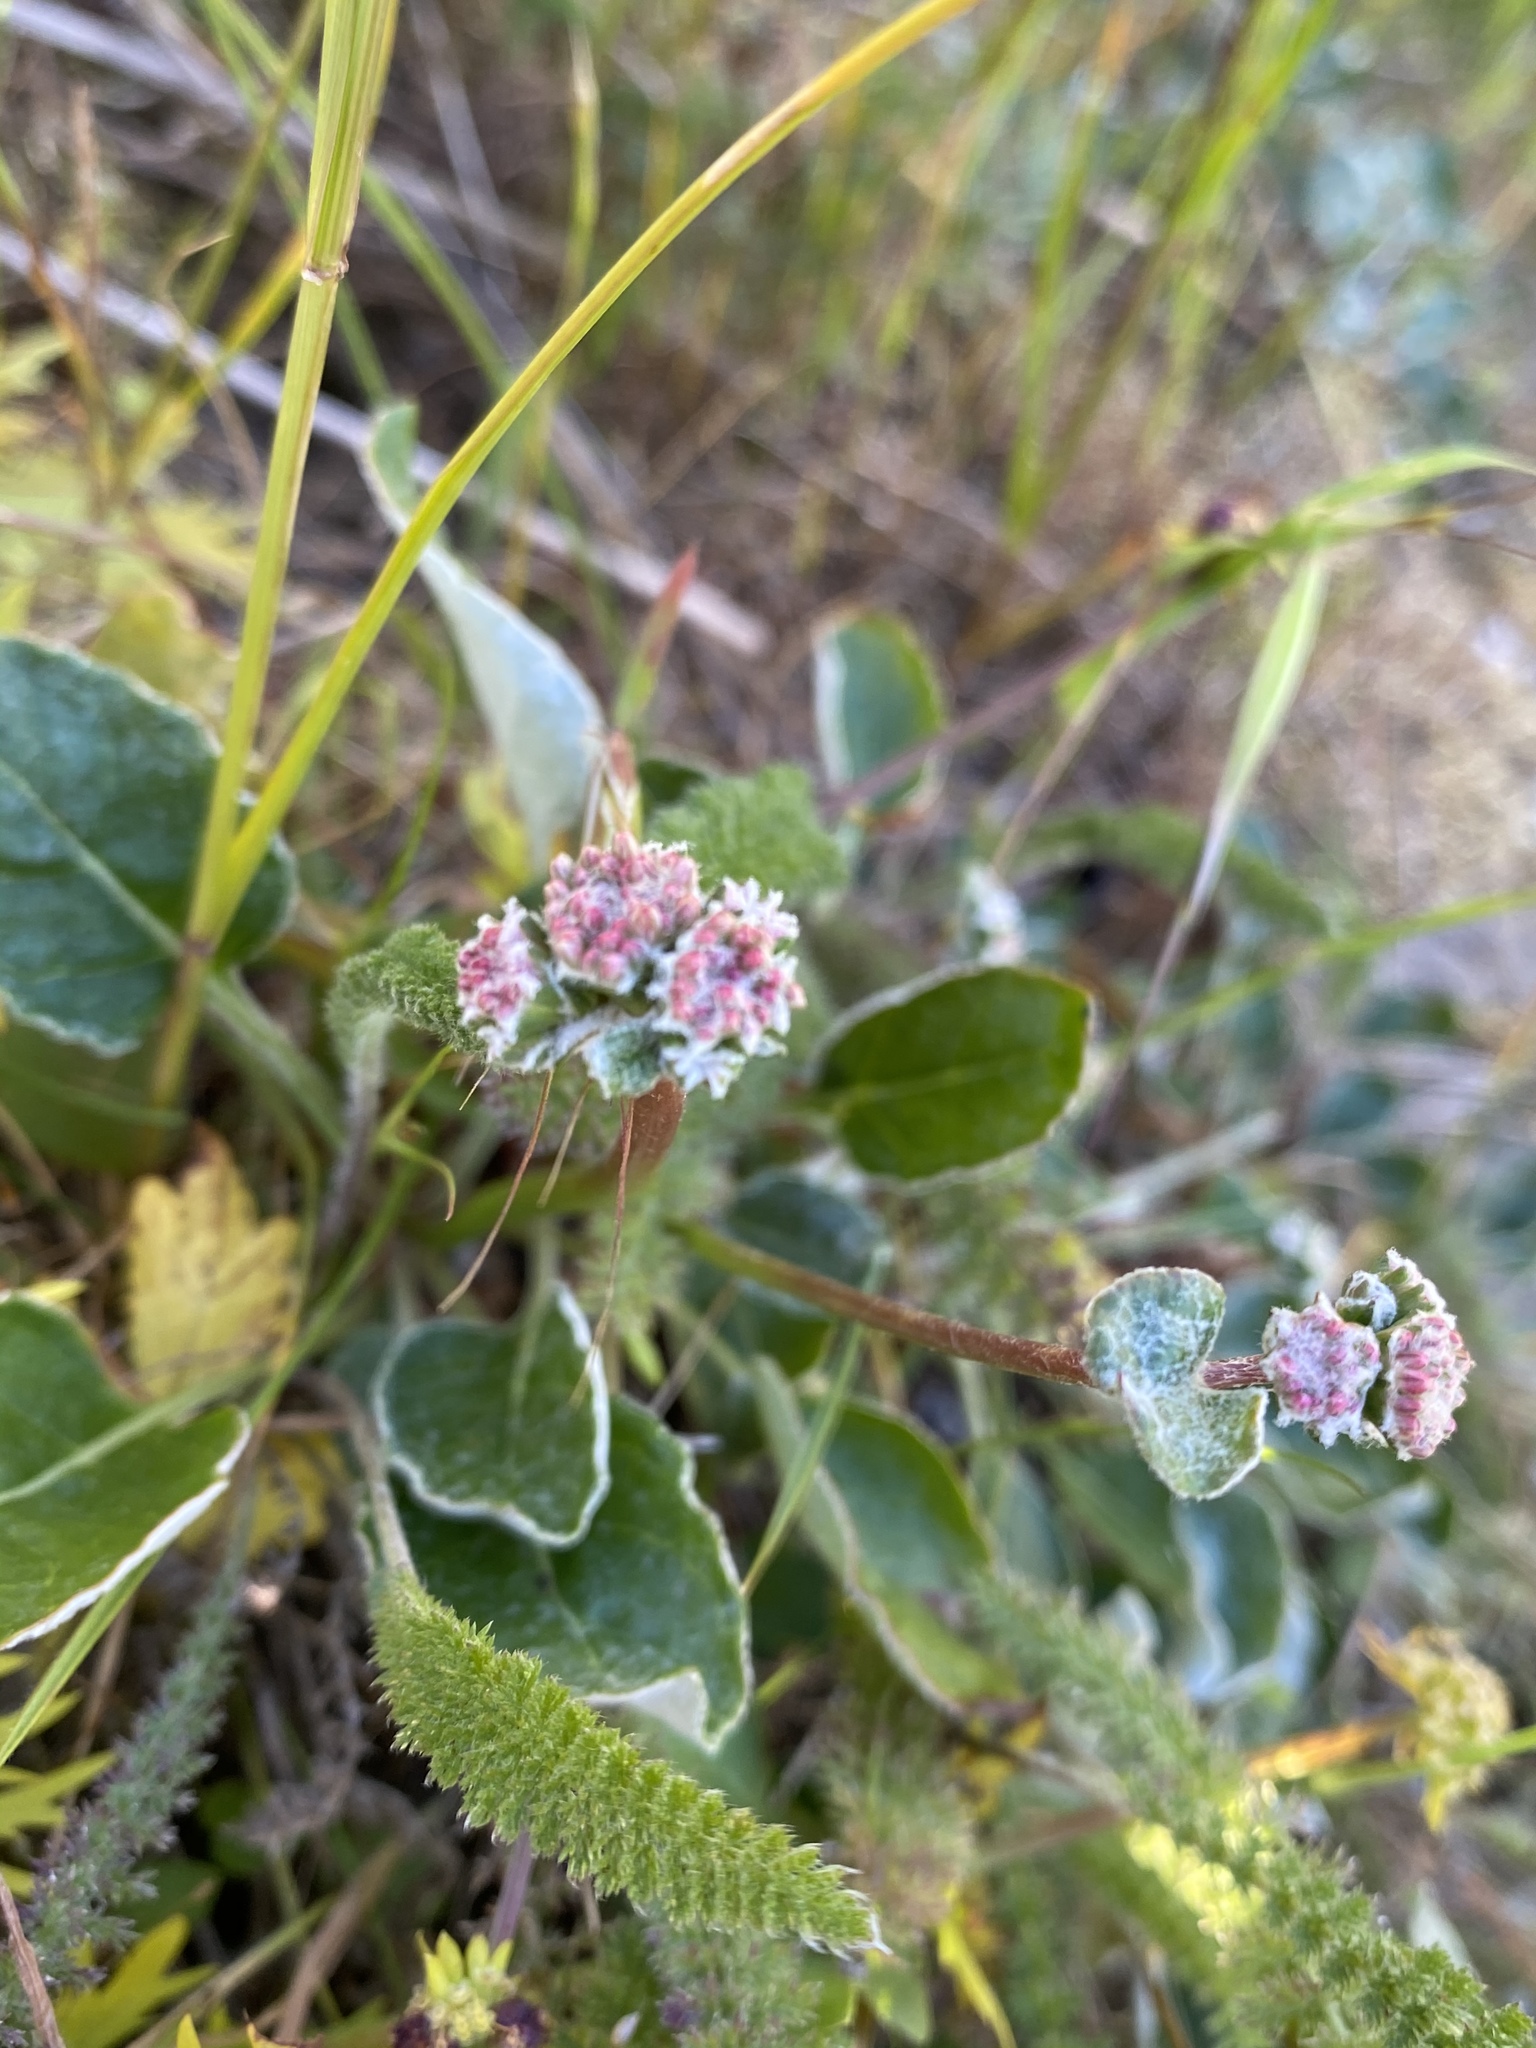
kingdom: Plantae
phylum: Tracheophyta
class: Magnoliopsida
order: Caryophyllales
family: Polygonaceae
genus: Eriogonum
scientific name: Eriogonum nudum
